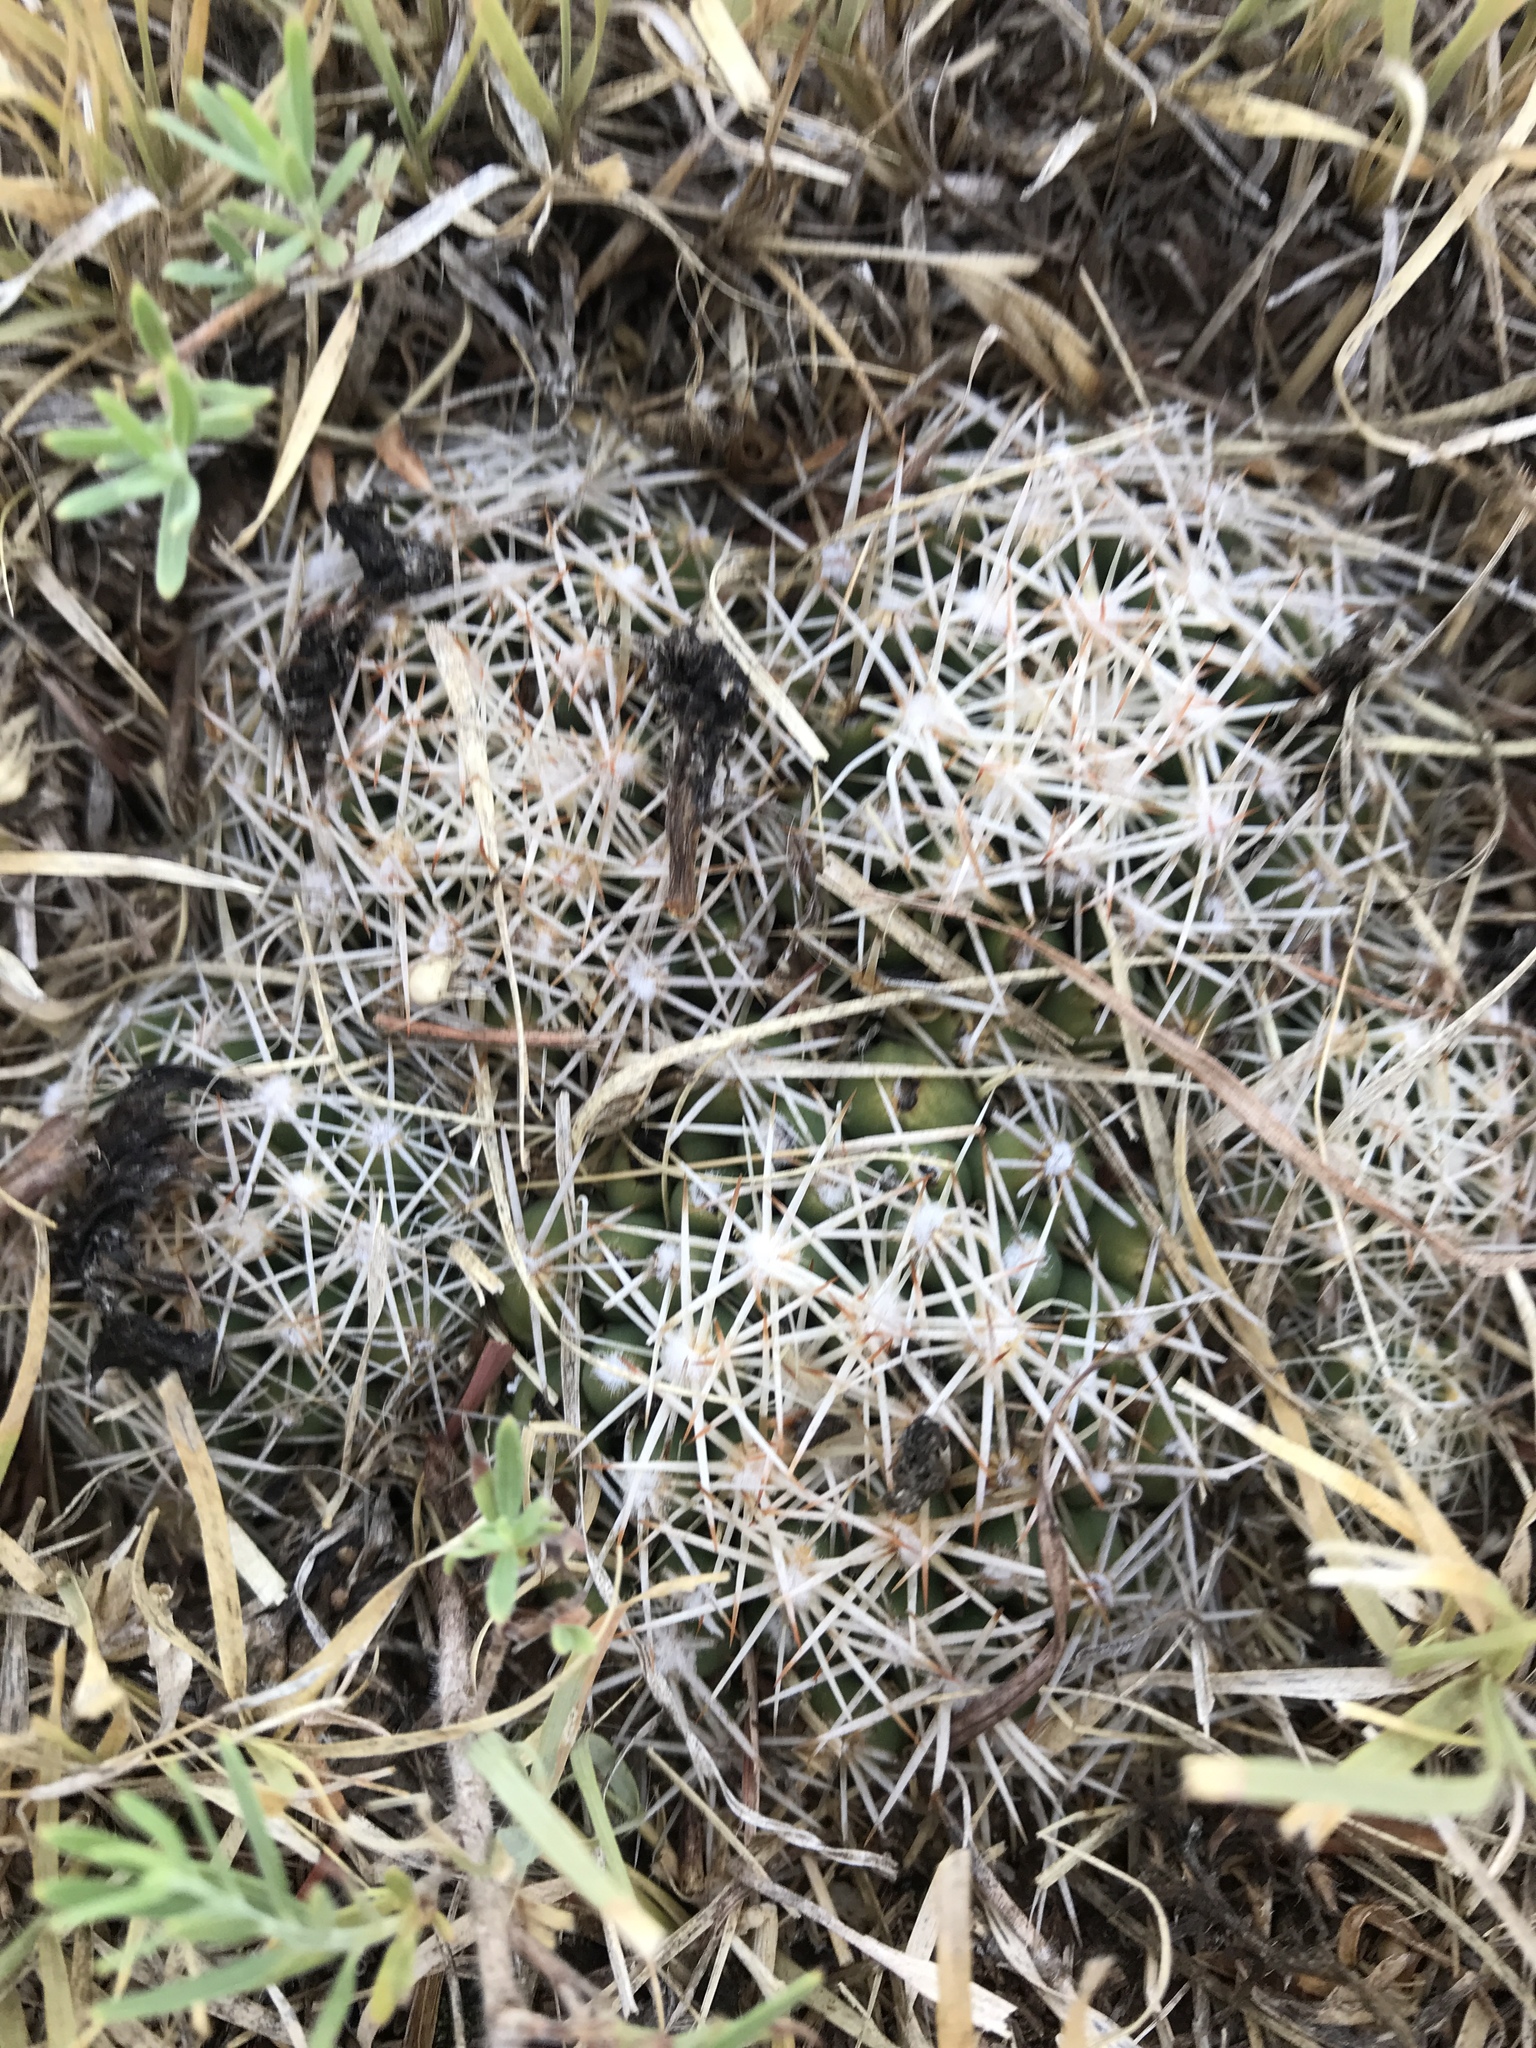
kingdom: Plantae
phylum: Tracheophyta
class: Magnoliopsida
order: Caryophyllales
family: Cactaceae
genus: Pelecyphora
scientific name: Pelecyphora vivipara
